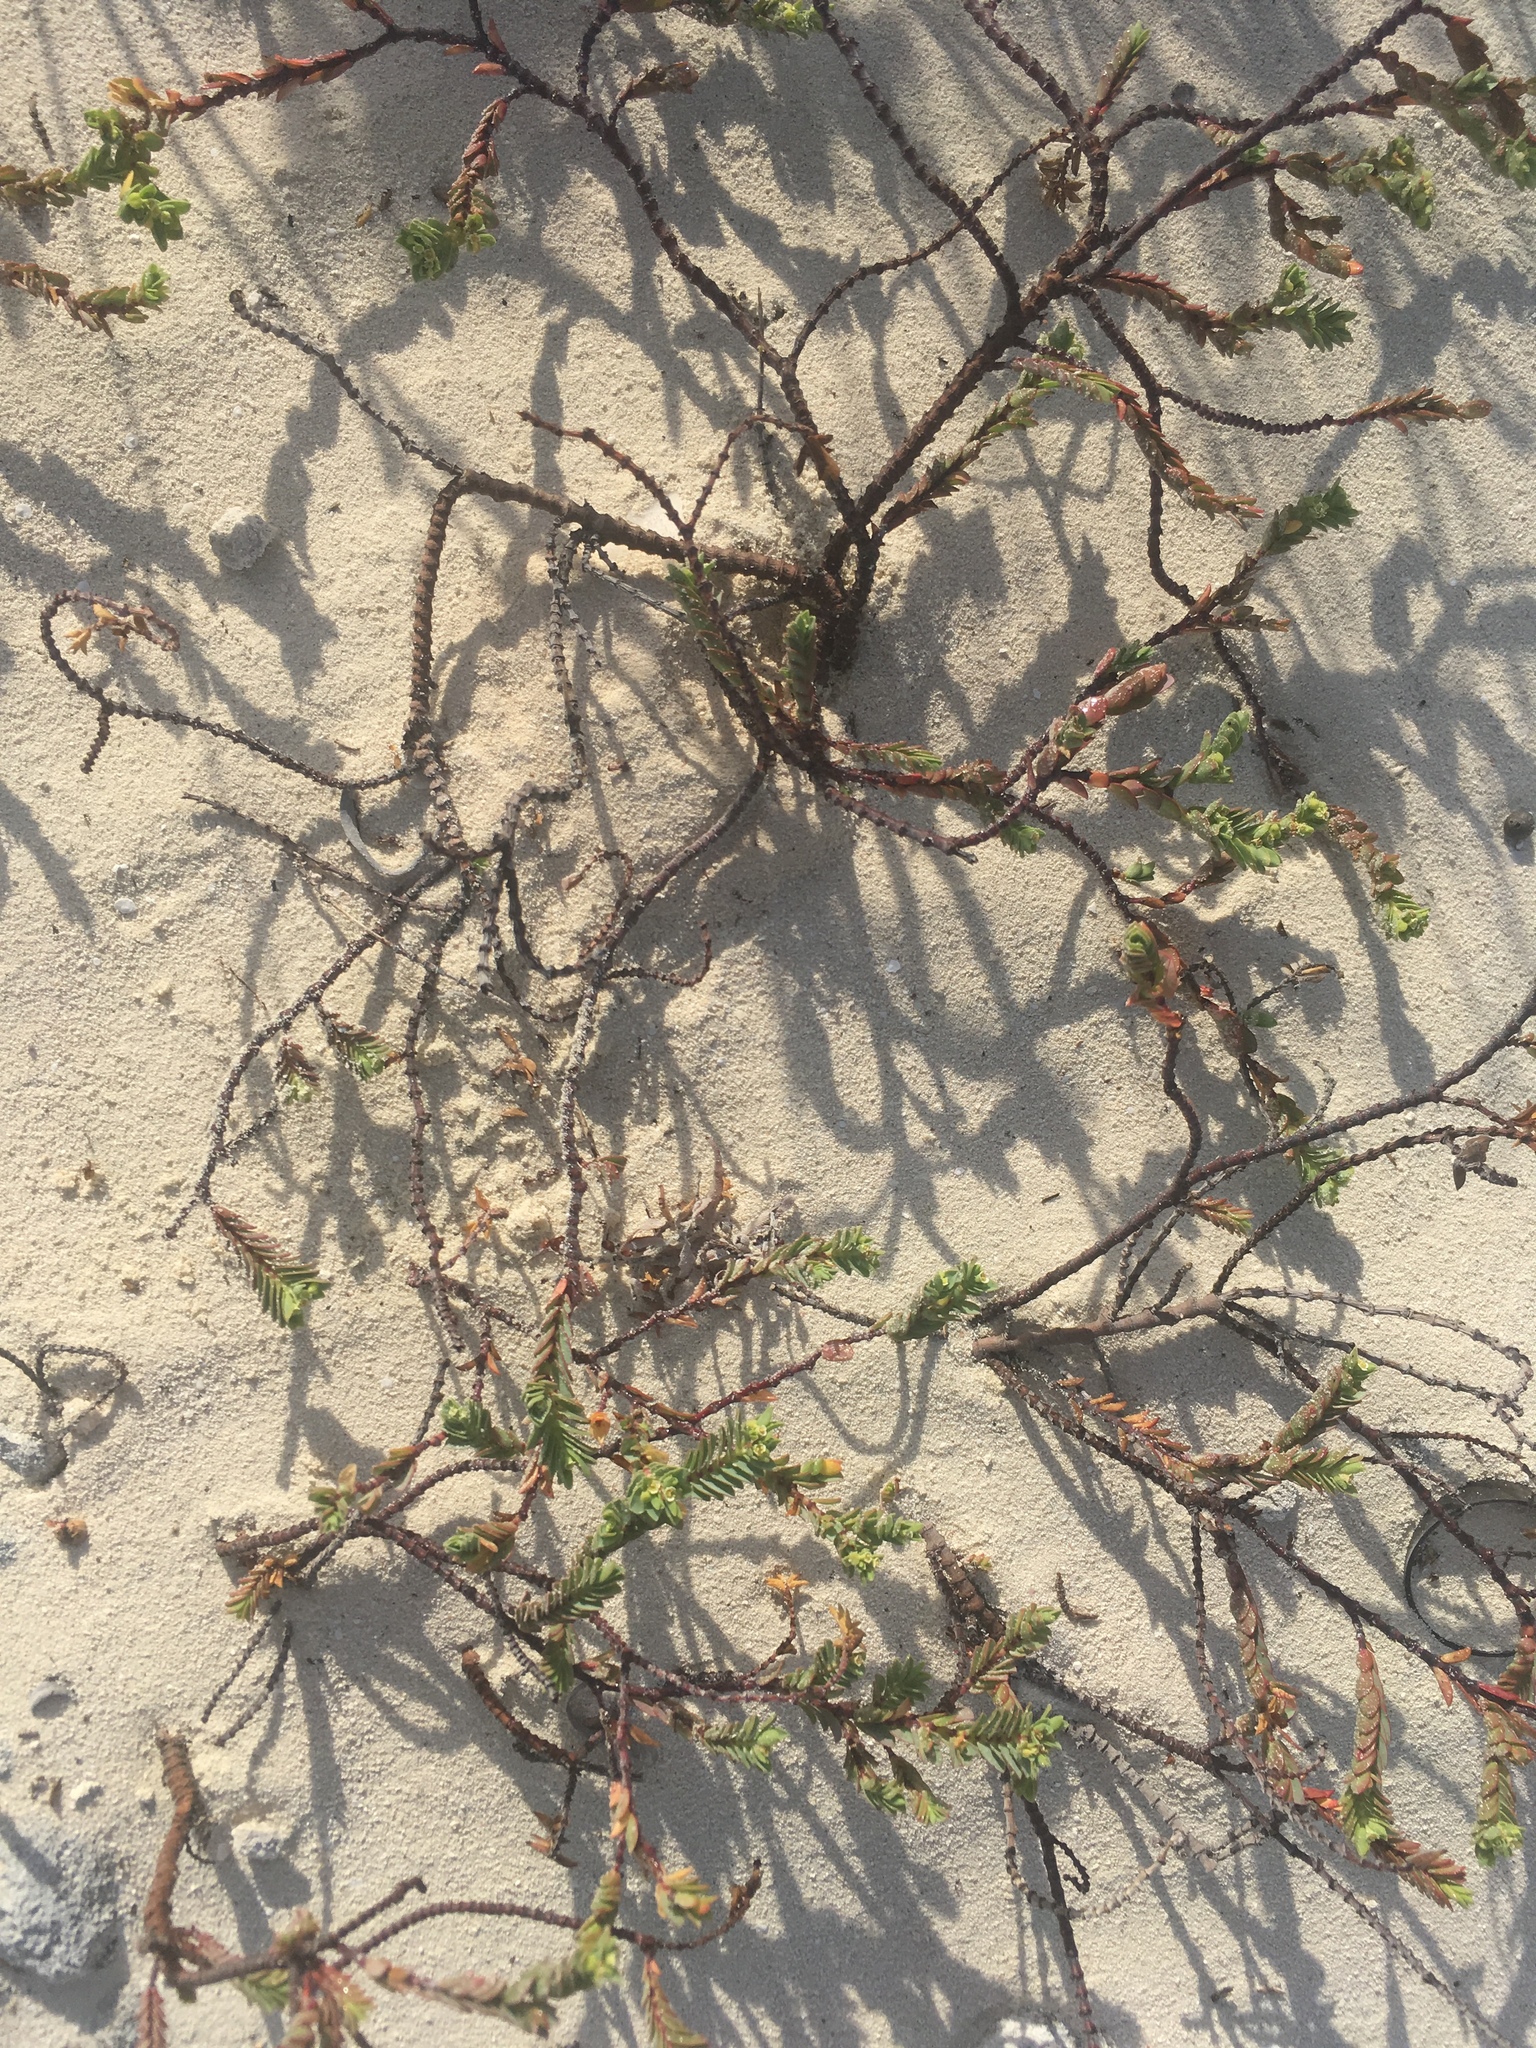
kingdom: Plantae
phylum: Tracheophyta
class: Magnoliopsida
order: Malpighiales
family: Euphorbiaceae
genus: Euphorbia
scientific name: Euphorbia mesembryanthemifolia
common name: Coastal beach sandmat
